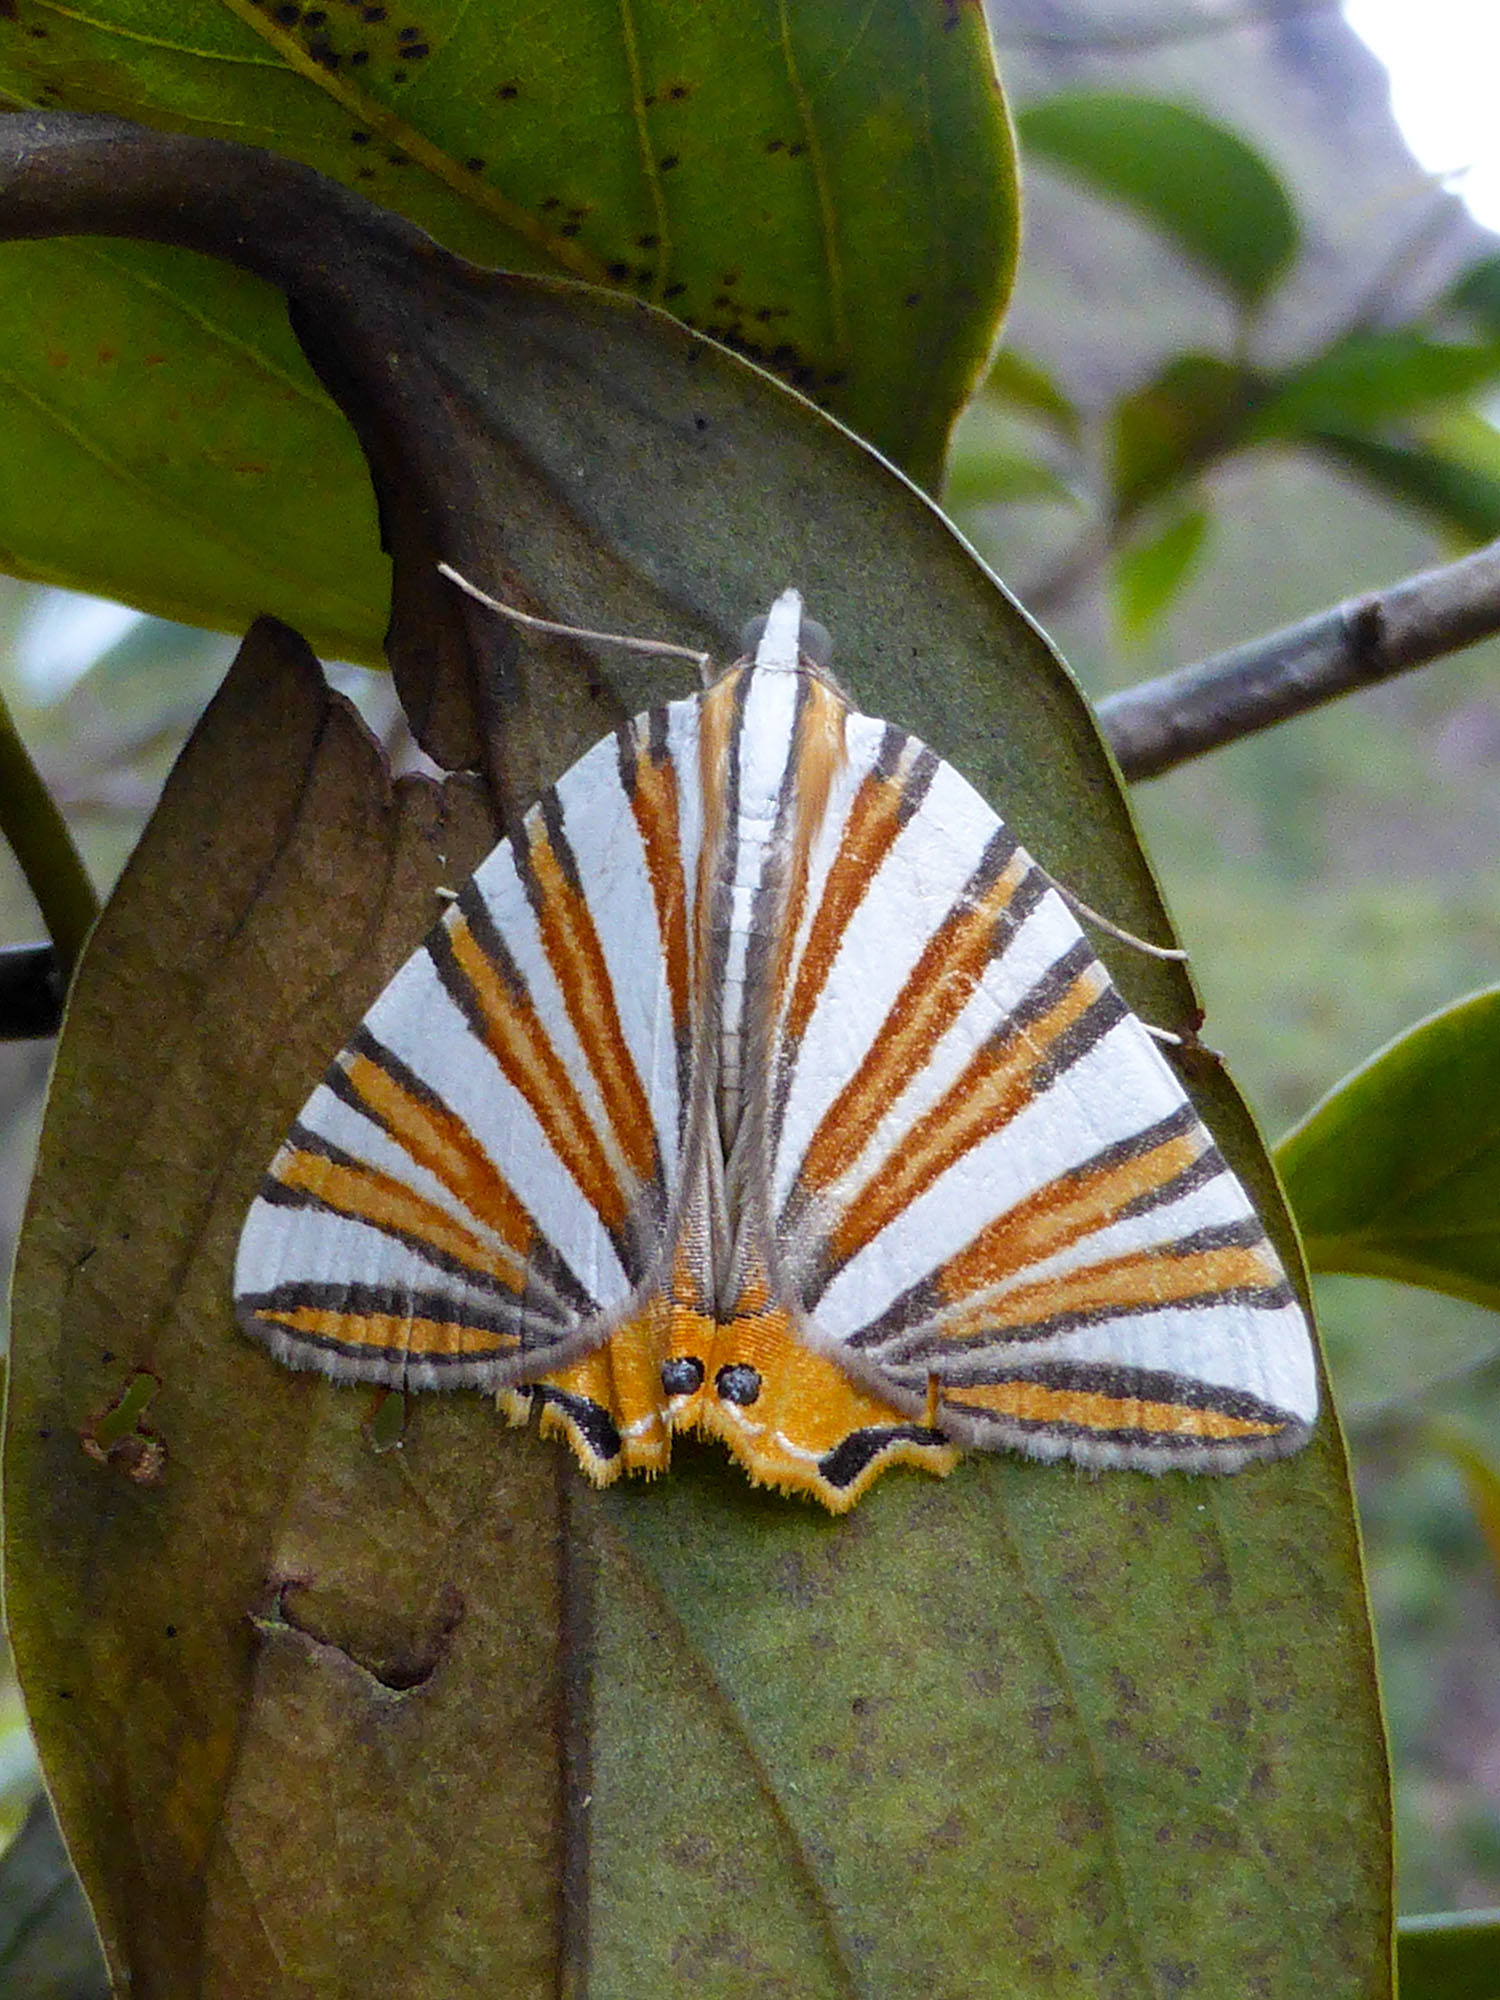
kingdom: Animalia
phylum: Arthropoda
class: Insecta
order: Lepidoptera
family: Geometridae
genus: Pityeja
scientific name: Pityeja histrionaria
